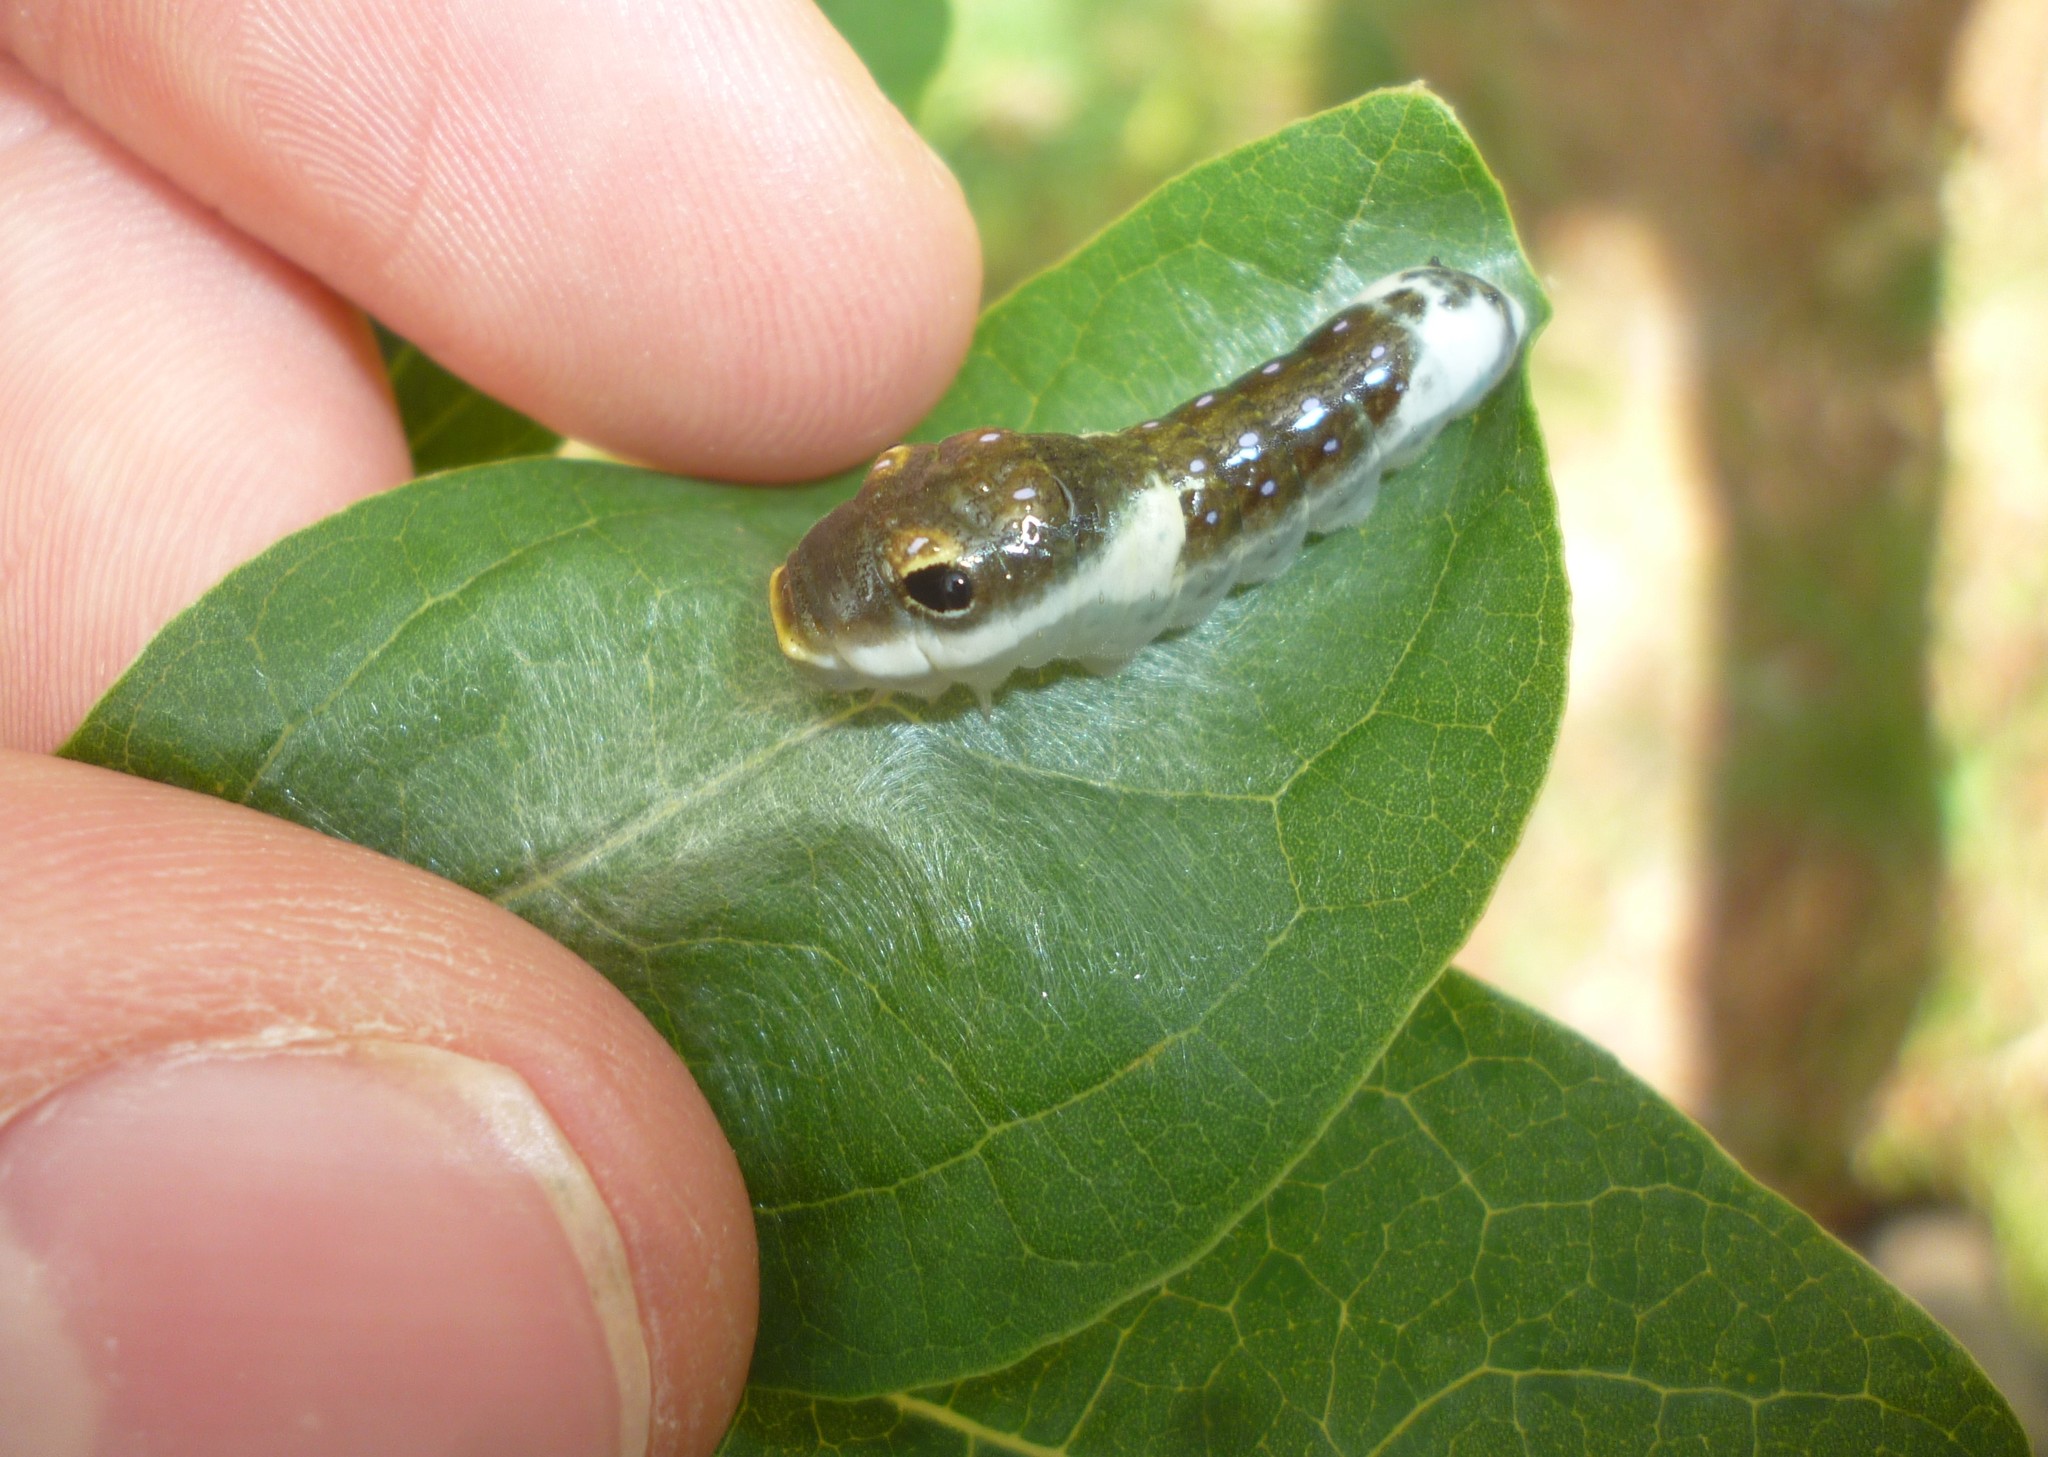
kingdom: Animalia
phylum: Arthropoda
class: Insecta
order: Lepidoptera
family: Papilionidae
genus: Papilio
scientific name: Papilio troilus
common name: Spicebush swallowtail
